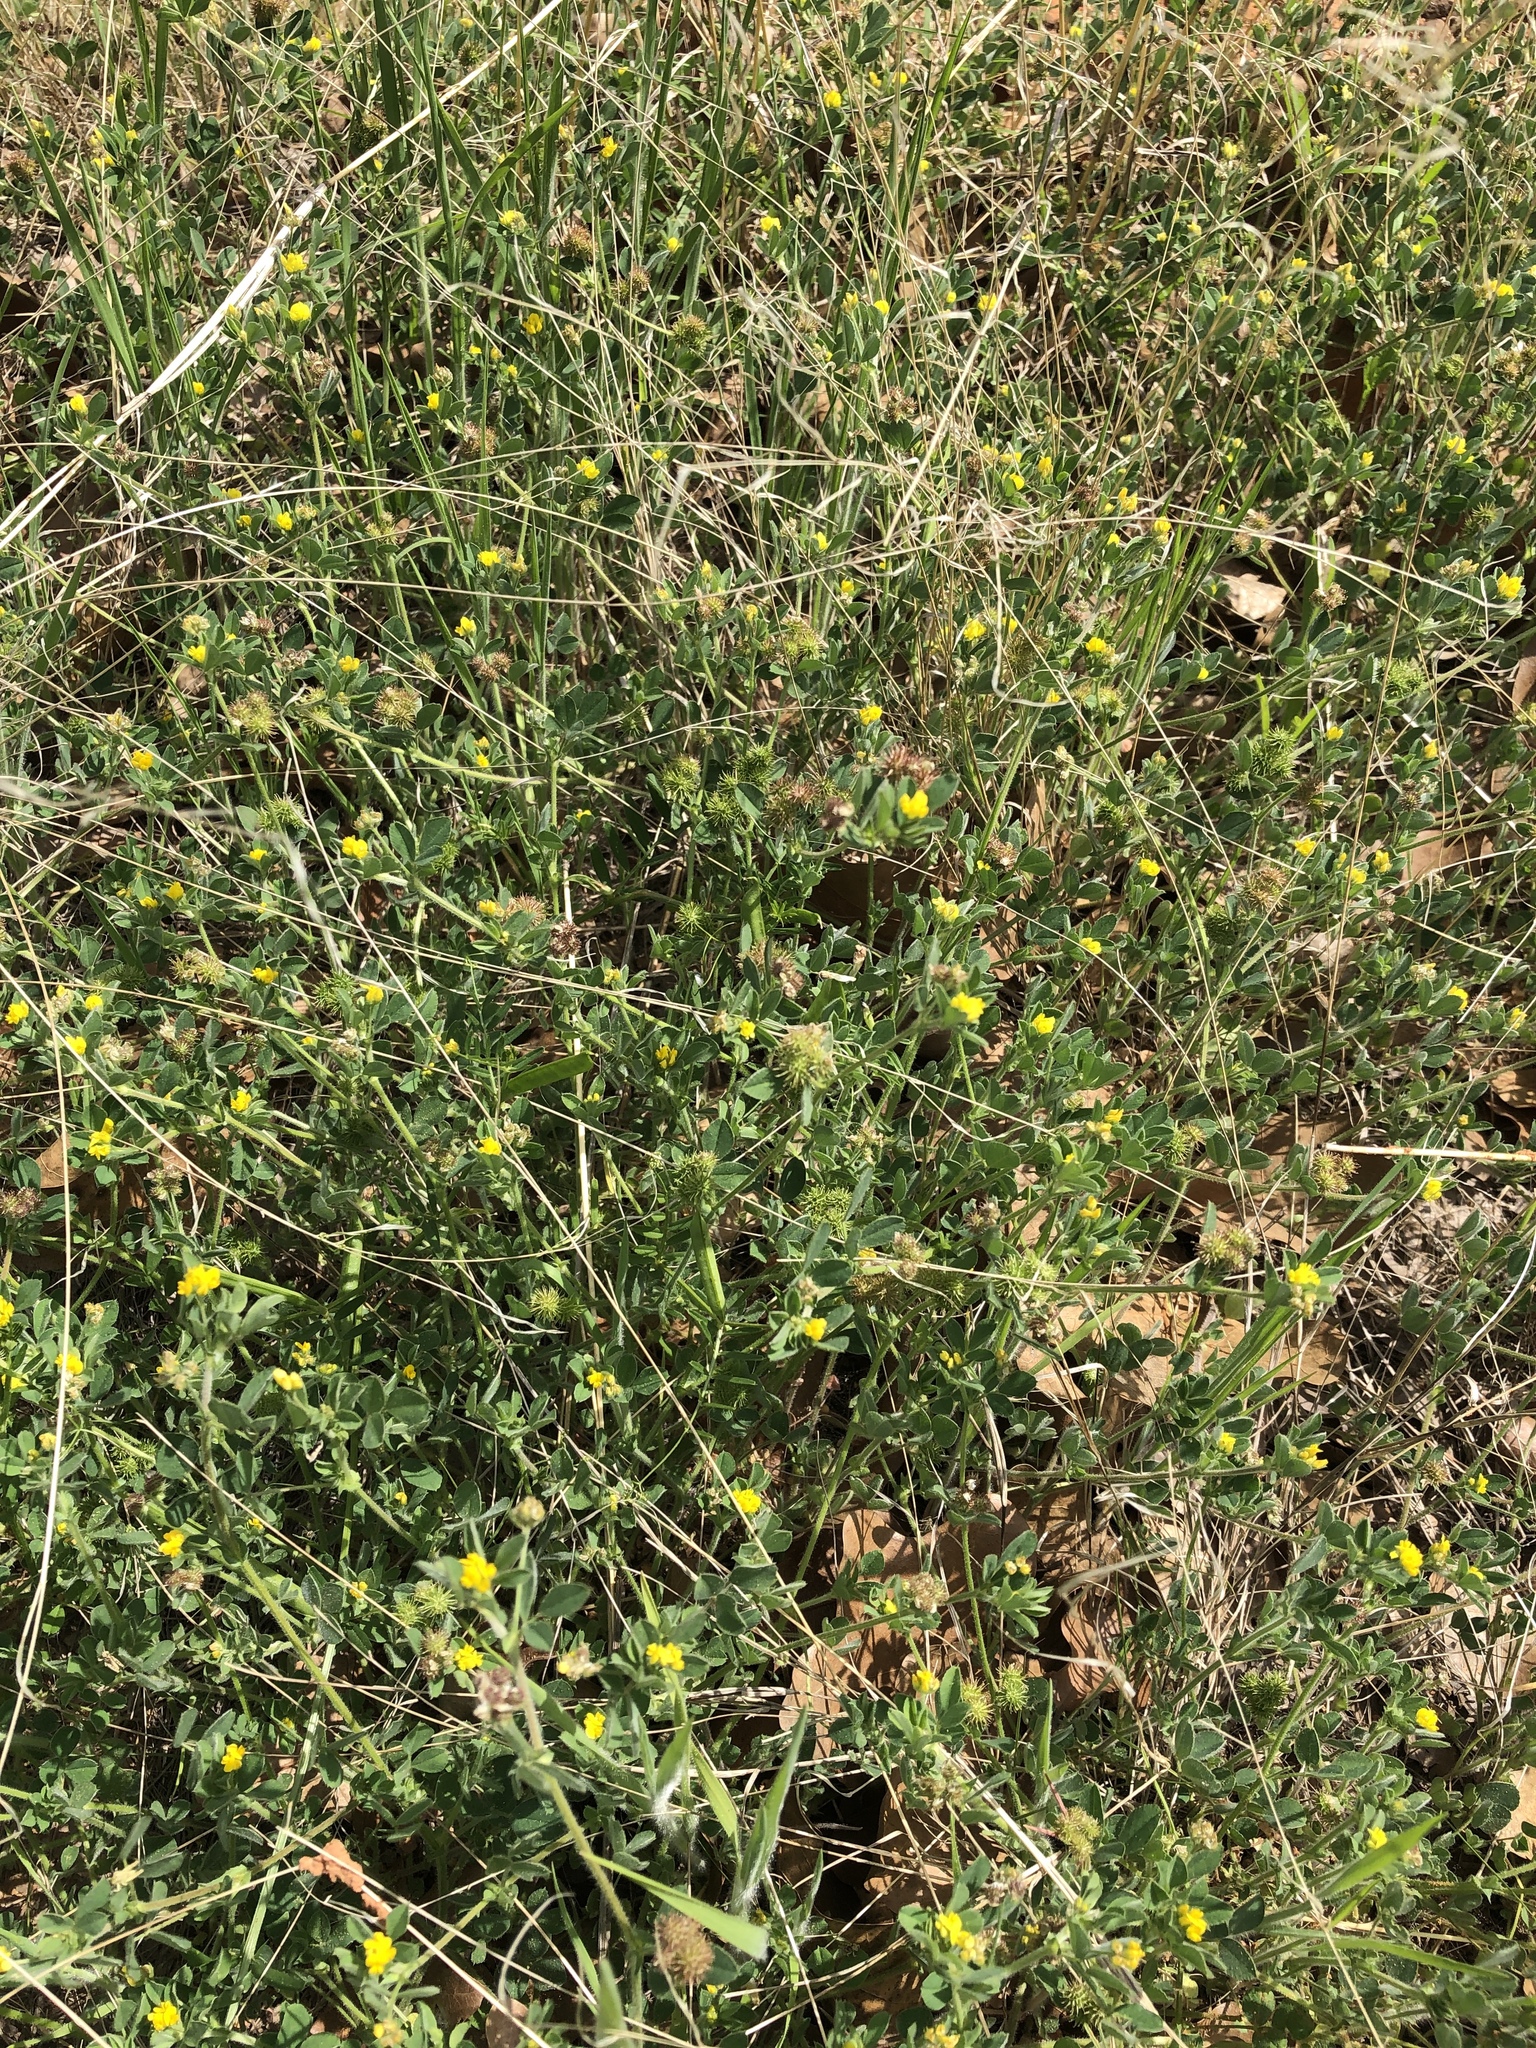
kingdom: Plantae
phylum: Tracheophyta
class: Magnoliopsida
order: Fabales
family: Fabaceae
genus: Medicago
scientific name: Medicago minima
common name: Little bur-clover
